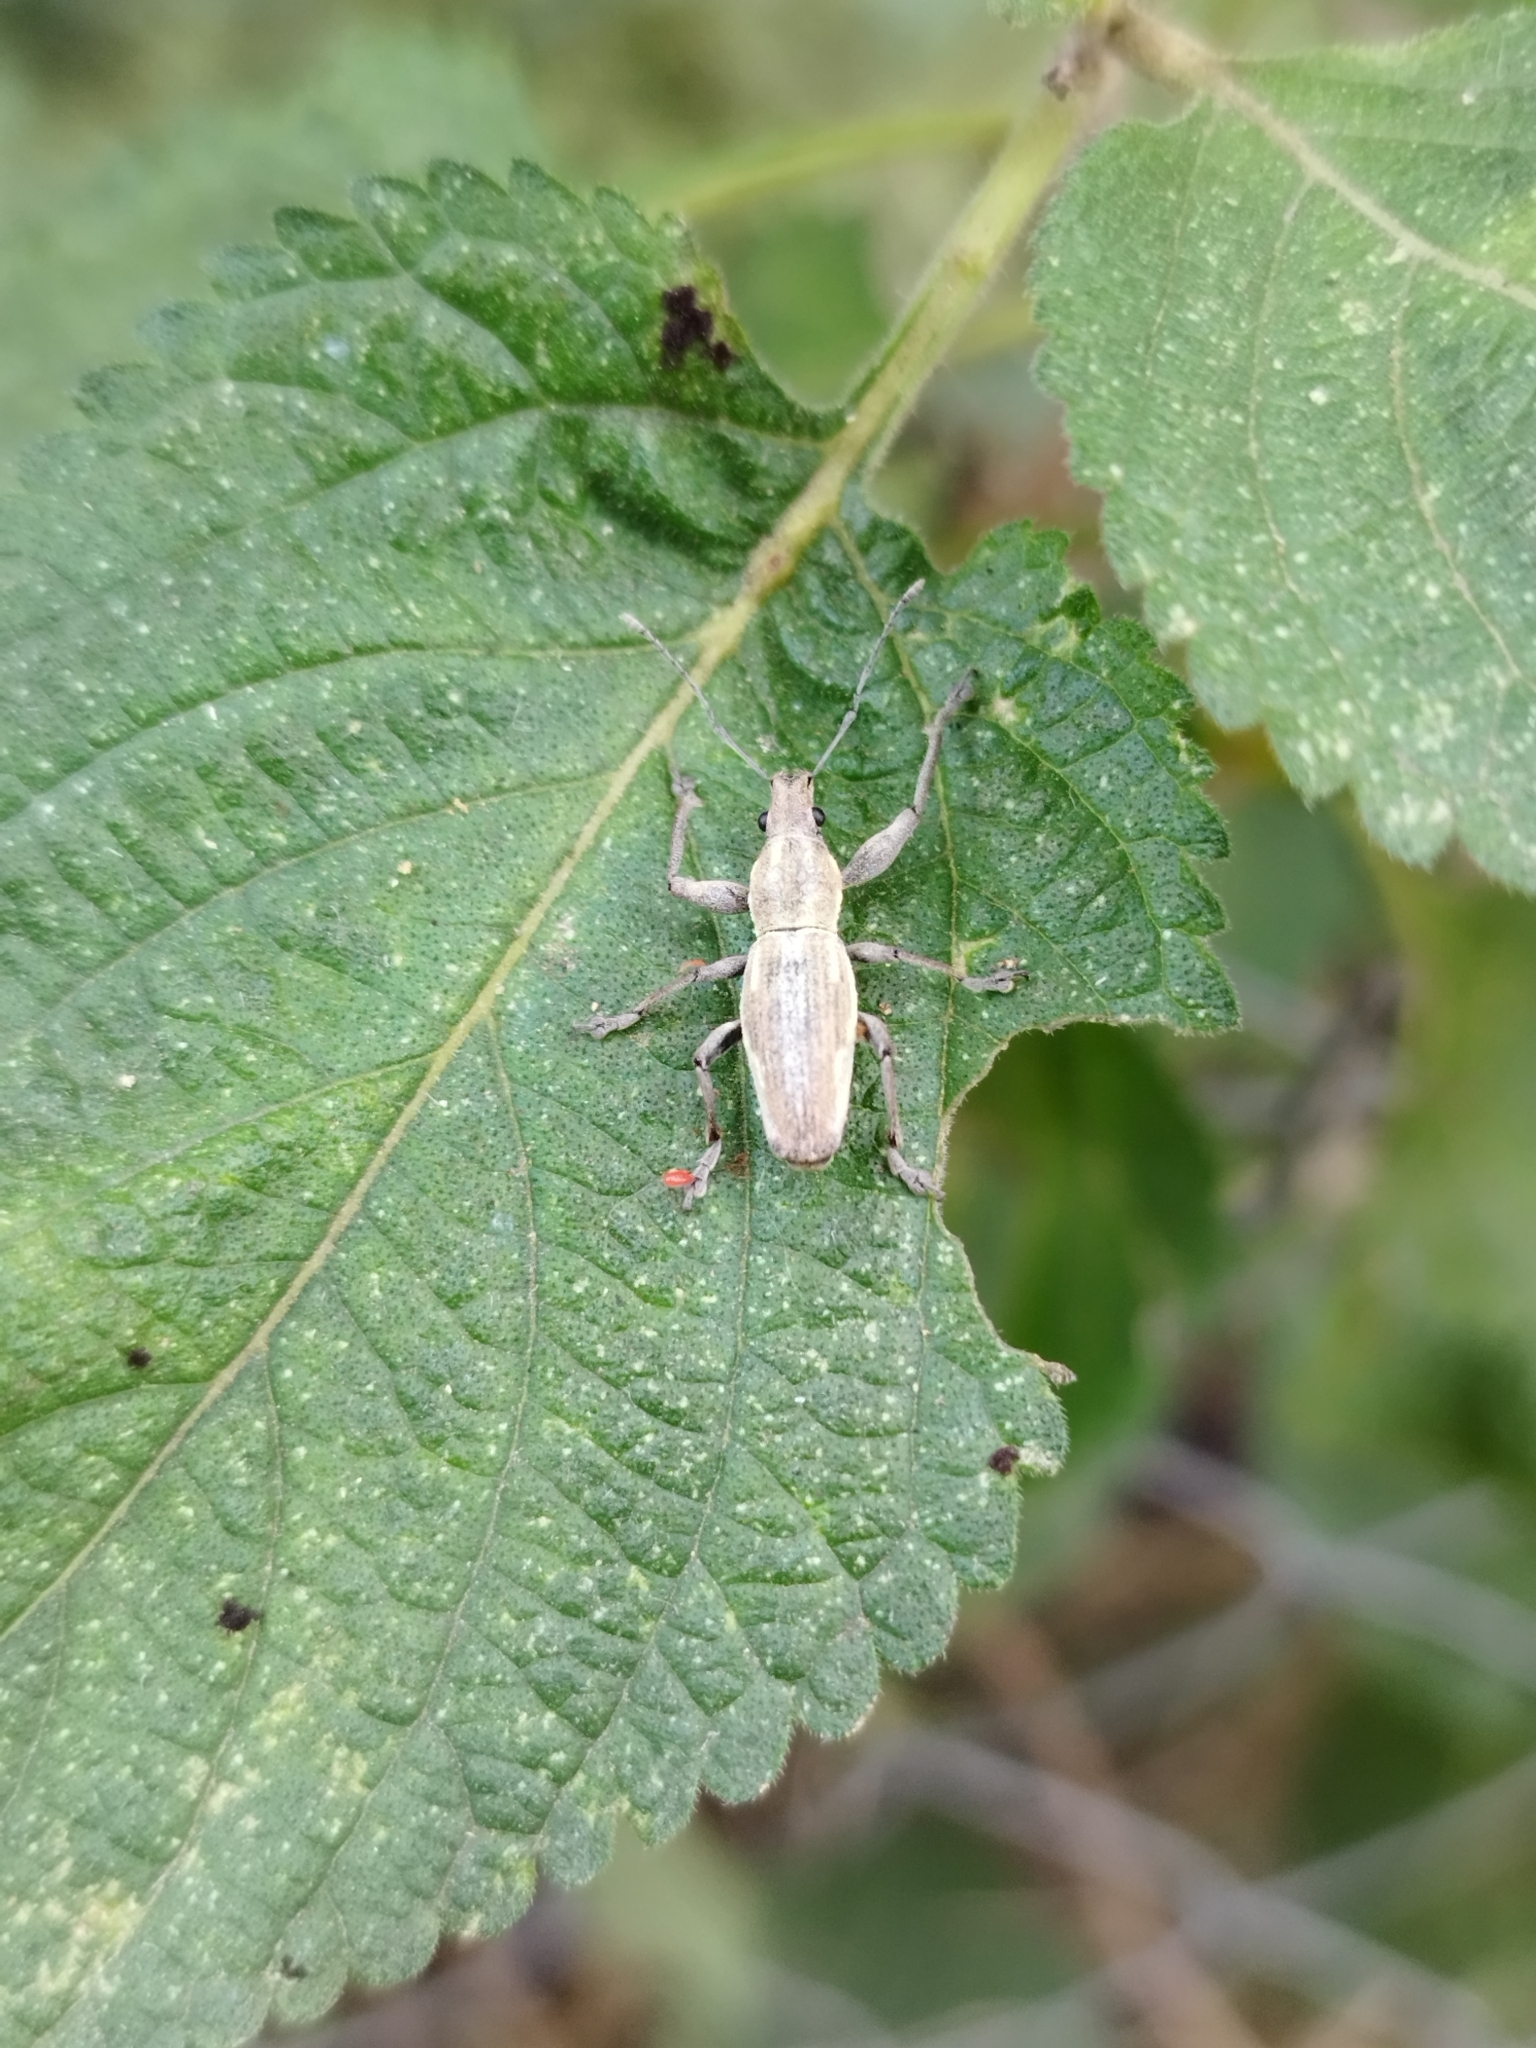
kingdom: Animalia
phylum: Arthropoda
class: Insecta
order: Coleoptera
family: Curculionidae
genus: Naupactus
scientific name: Naupactus xanthographus
